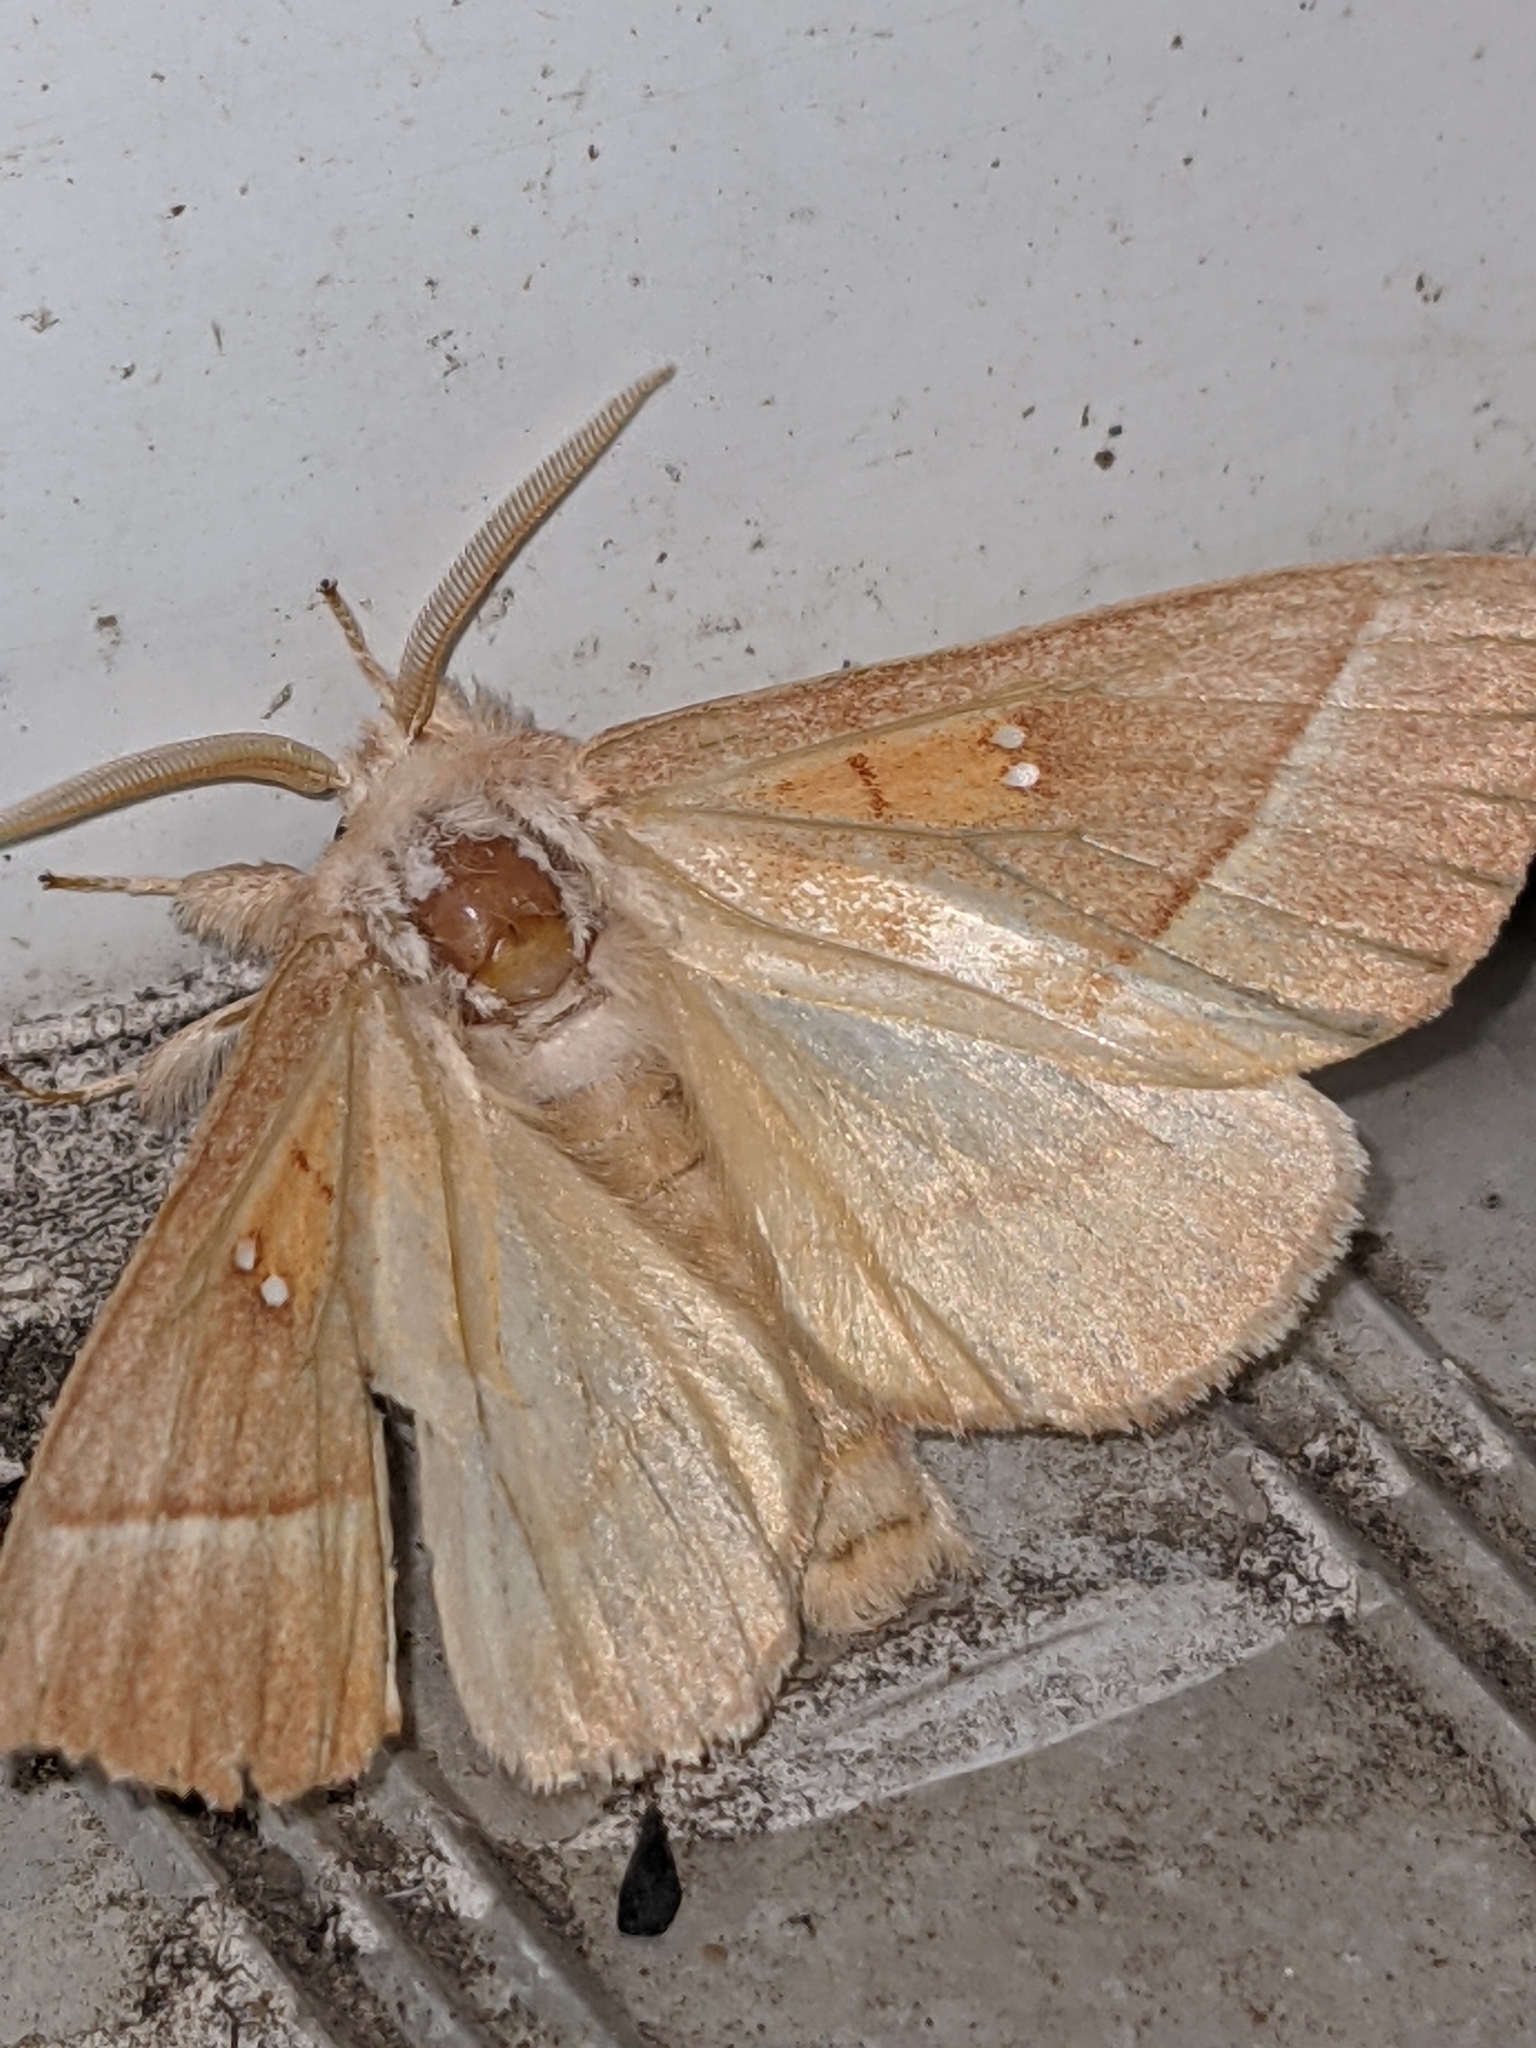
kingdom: Animalia
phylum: Arthropoda
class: Insecta
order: Lepidoptera
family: Notodontidae
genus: Nadata
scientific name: Nadata gibbosa
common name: White-dotted prominent
